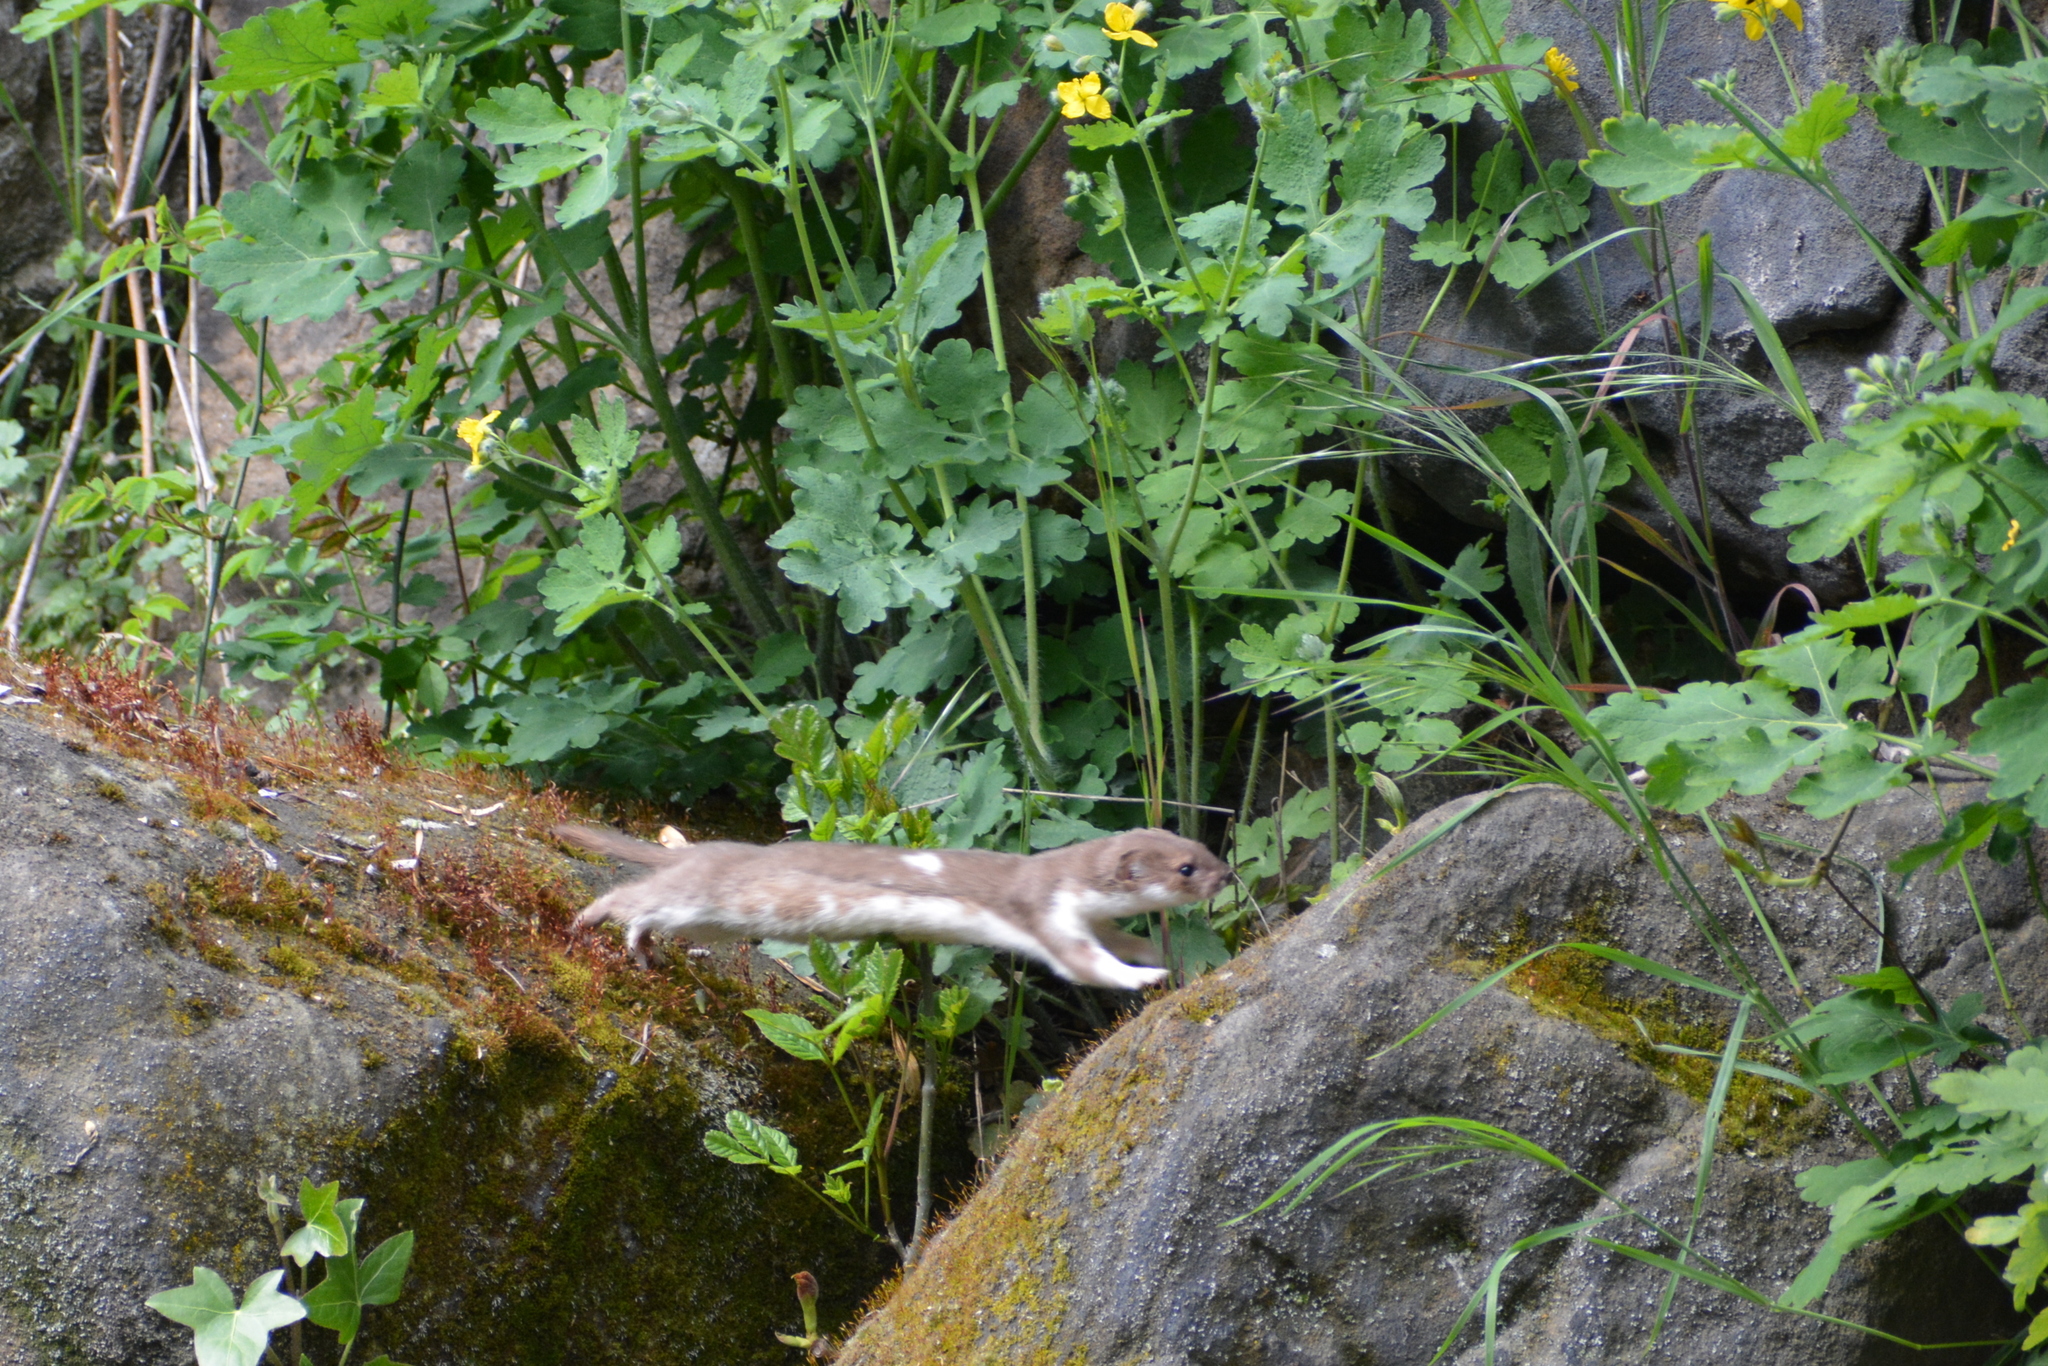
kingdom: Animalia
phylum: Chordata
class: Mammalia
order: Carnivora
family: Mustelidae
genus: Mustela
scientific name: Mustela nivalis
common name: Least weasel
